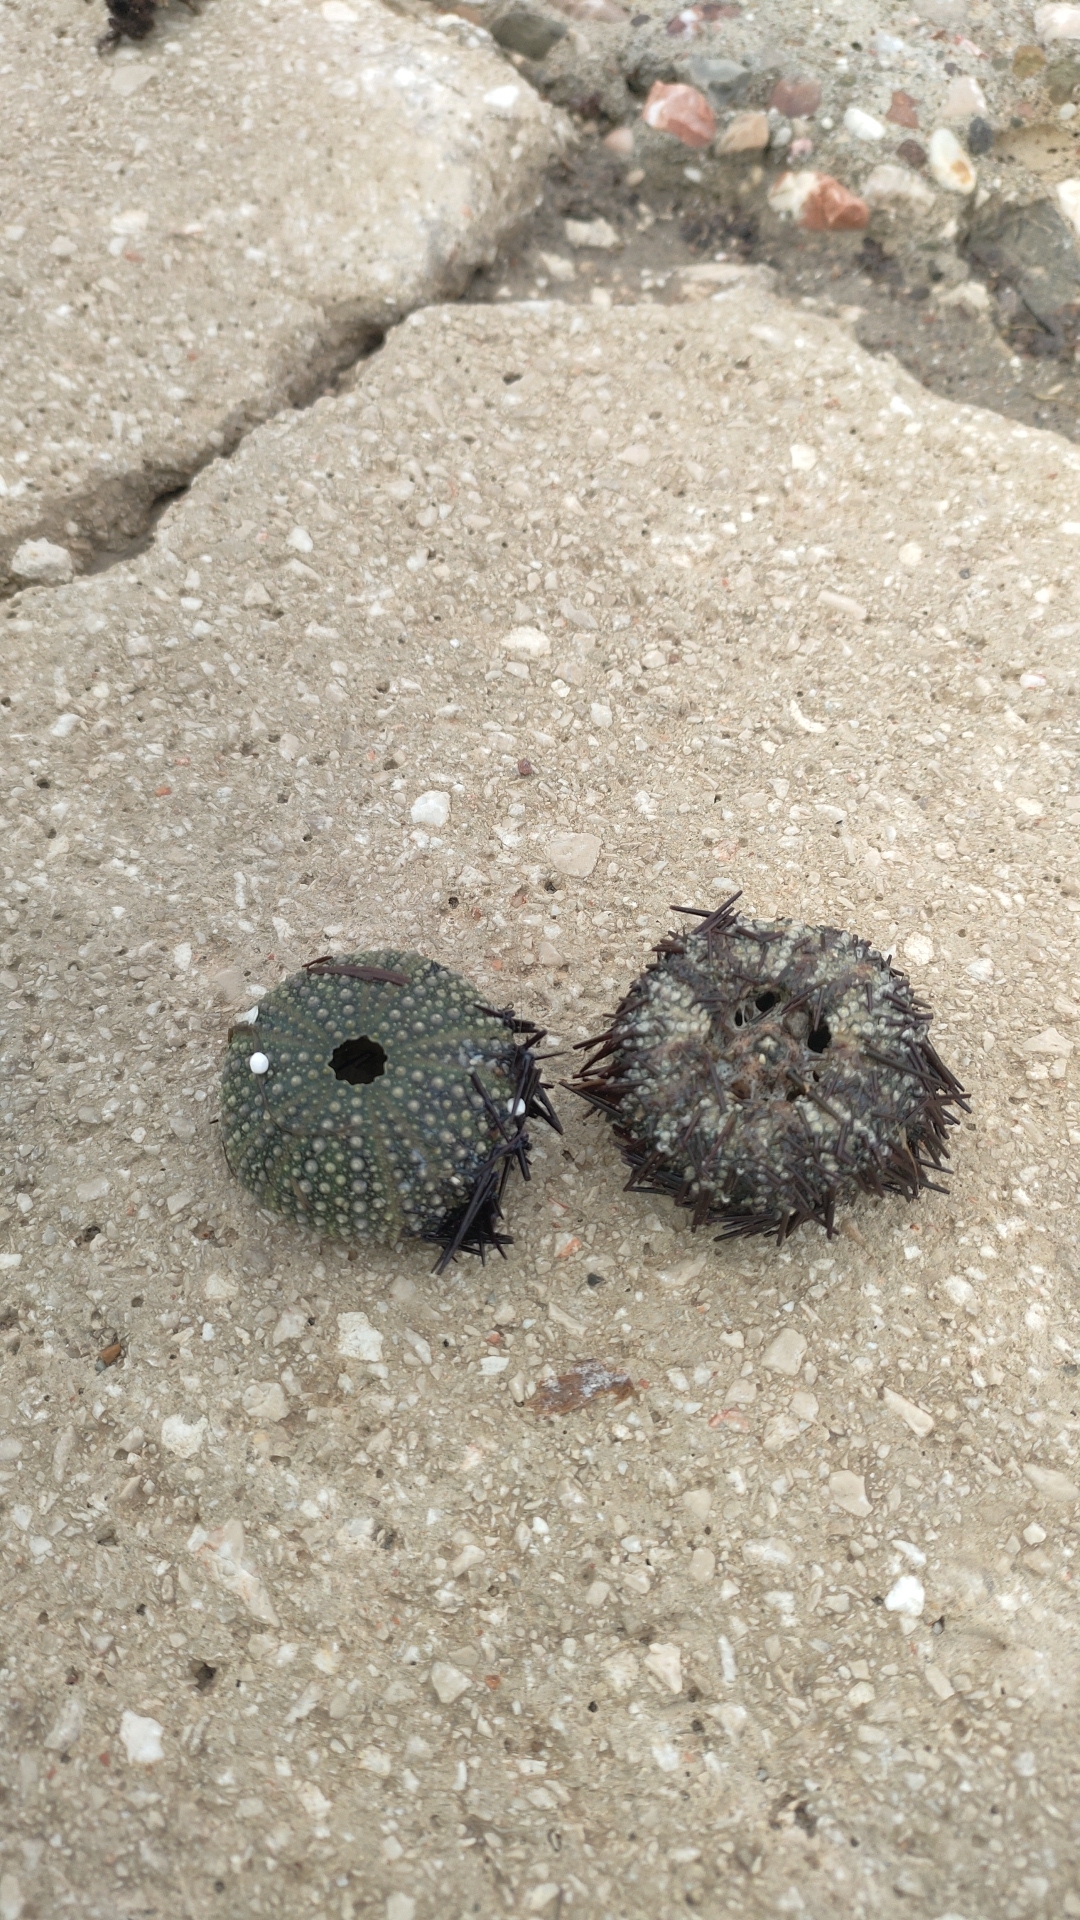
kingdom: Animalia
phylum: Echinodermata
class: Echinoidea
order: Camarodonta
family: Parechinidae
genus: Paracentrotus
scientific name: Paracentrotus lividus
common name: Purple sea urchin
